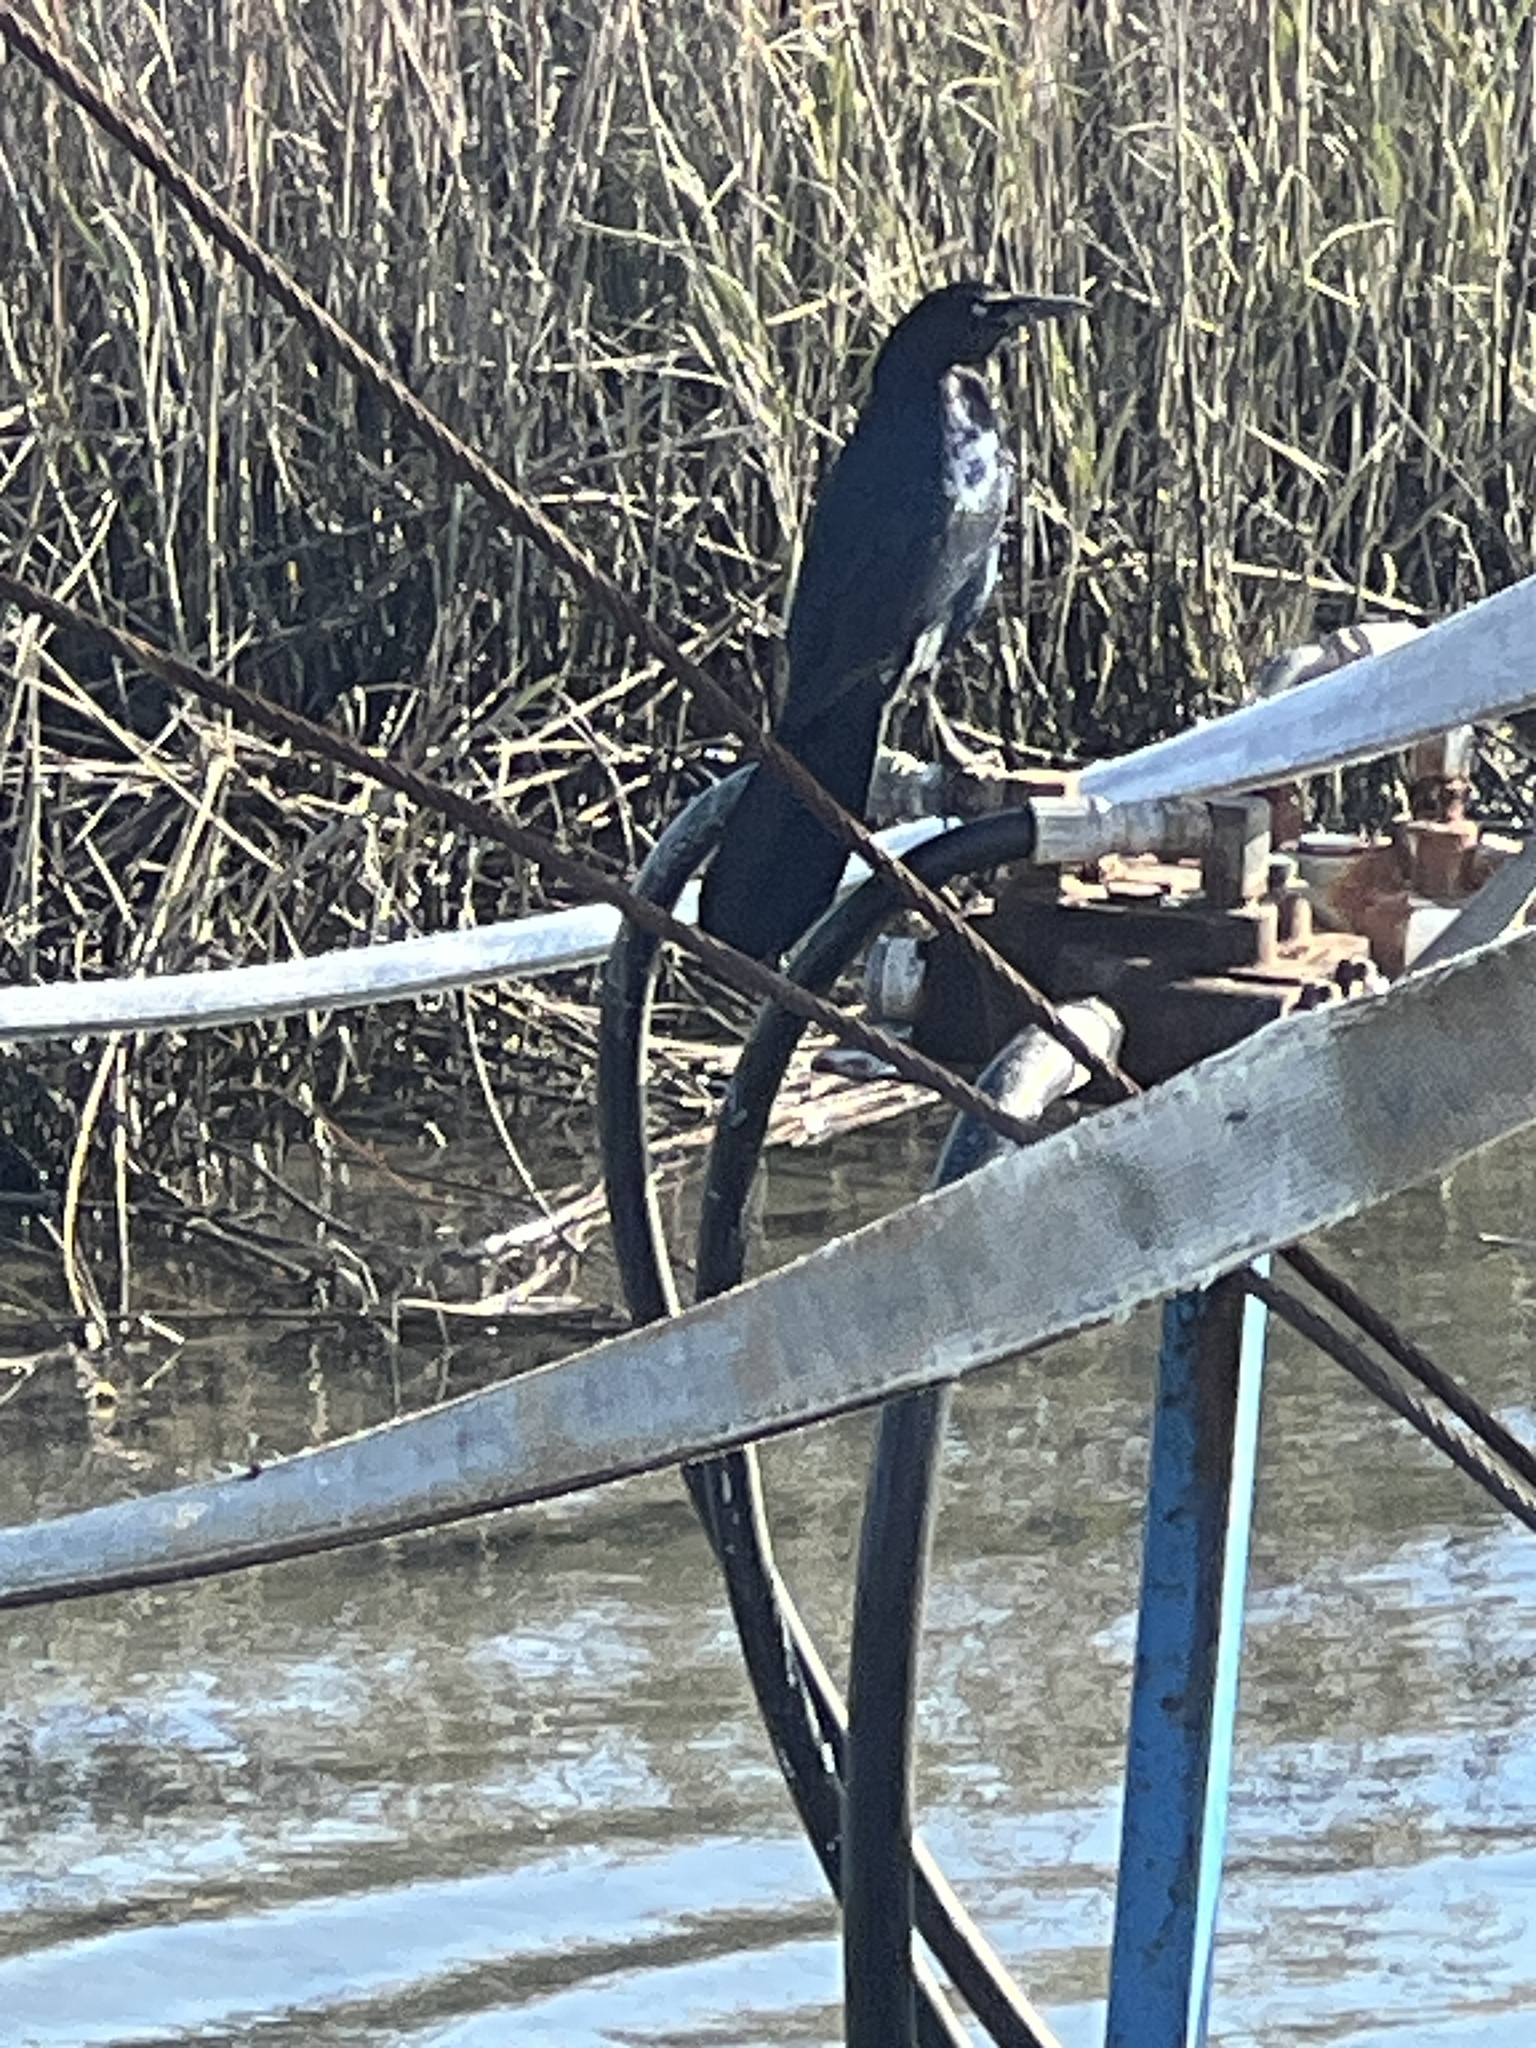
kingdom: Animalia
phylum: Chordata
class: Aves
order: Passeriformes
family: Icteridae
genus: Quiscalus
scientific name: Quiscalus major
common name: Boat-tailed grackle
